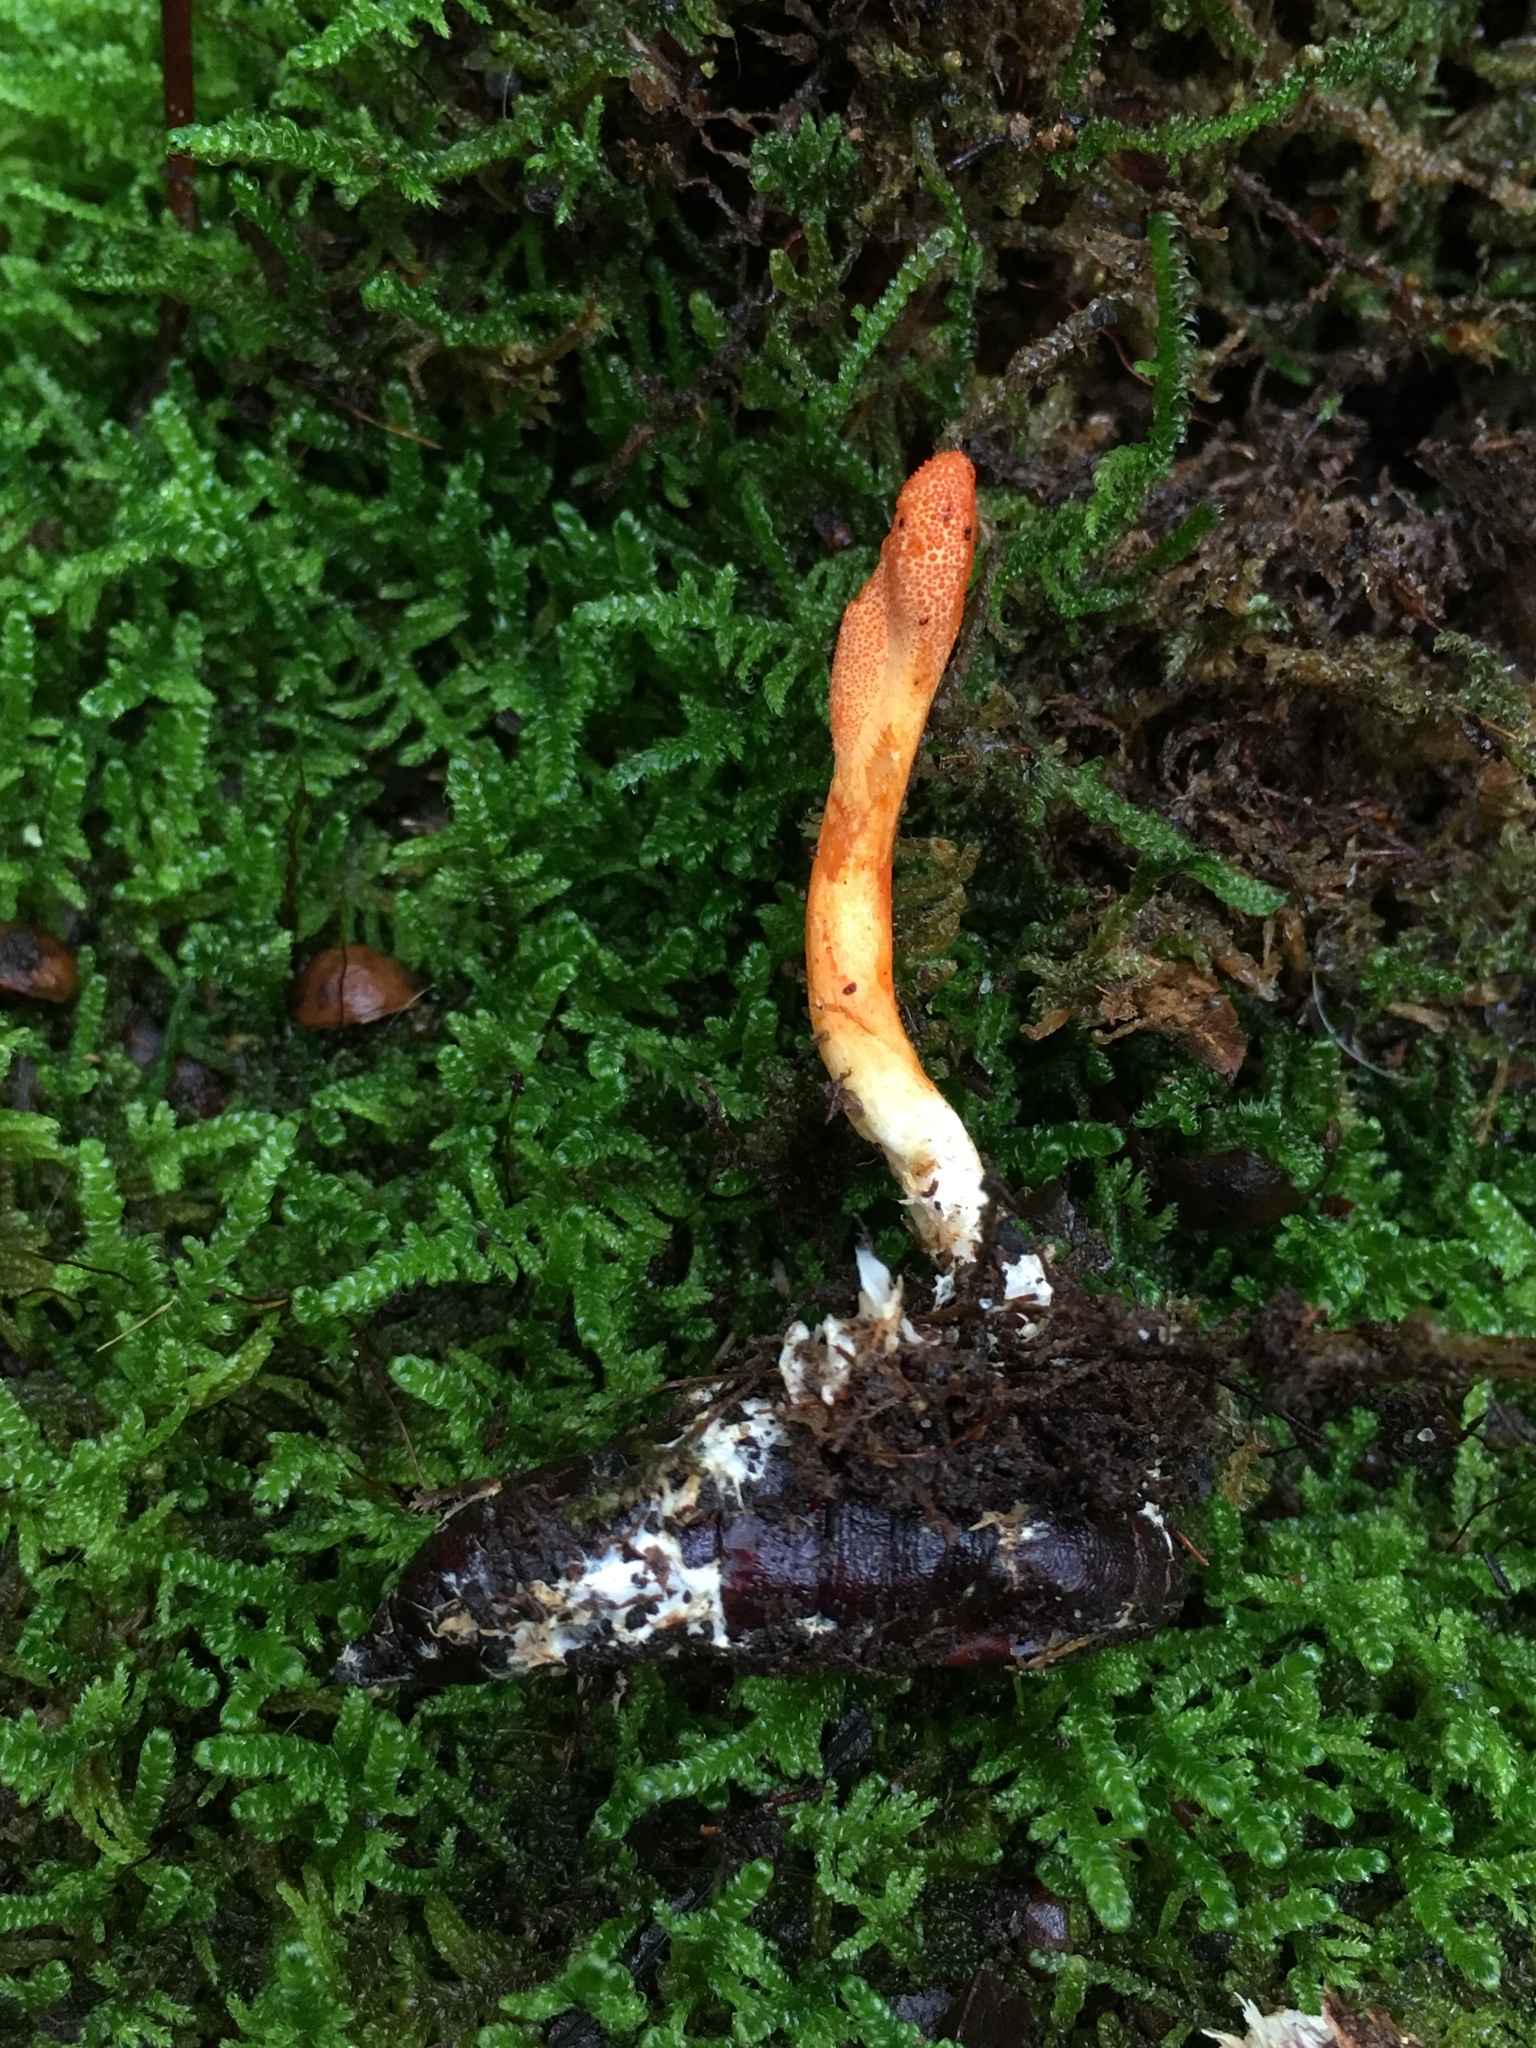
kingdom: Fungi
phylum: Ascomycota
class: Sordariomycetes
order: Hypocreales
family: Cordycipitaceae
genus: Cordyceps
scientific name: Cordyceps militaris
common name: Scarlet caterpillar fungus
